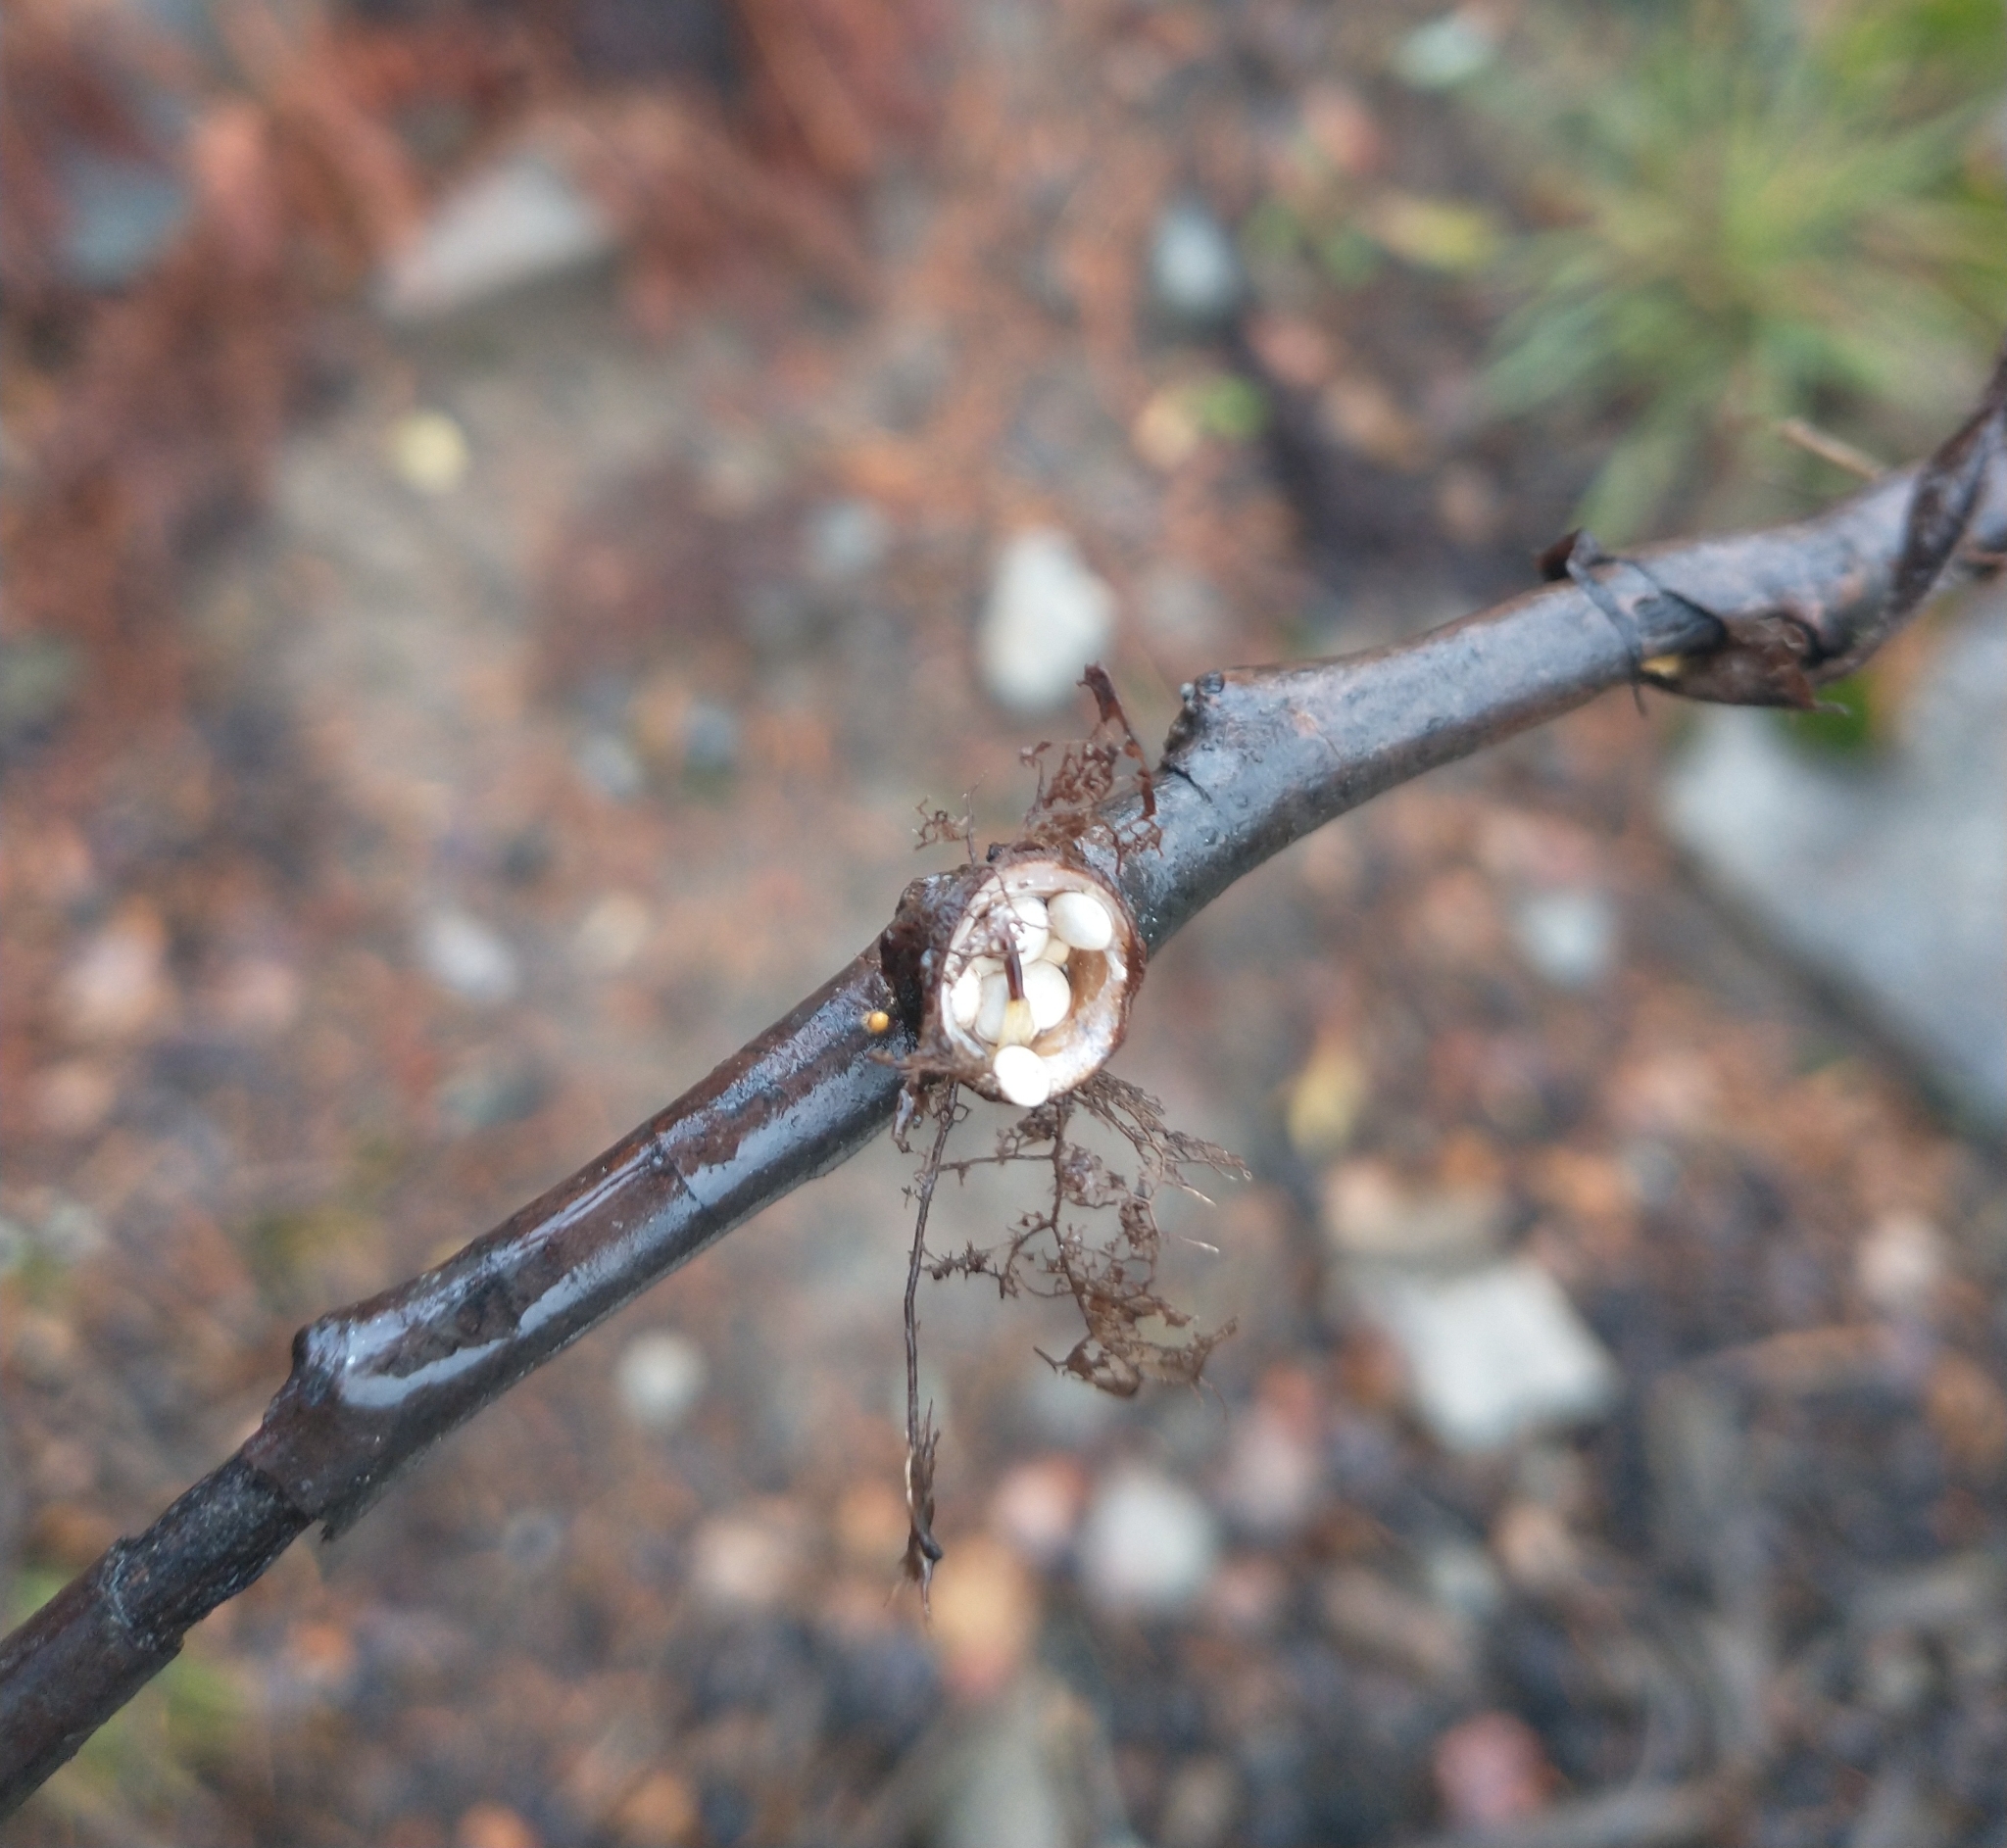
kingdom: Fungi
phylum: Basidiomycota
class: Agaricomycetes
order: Agaricales
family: Nidulariaceae
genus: Crucibulum
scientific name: Crucibulum laeve
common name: Common bird's nest
